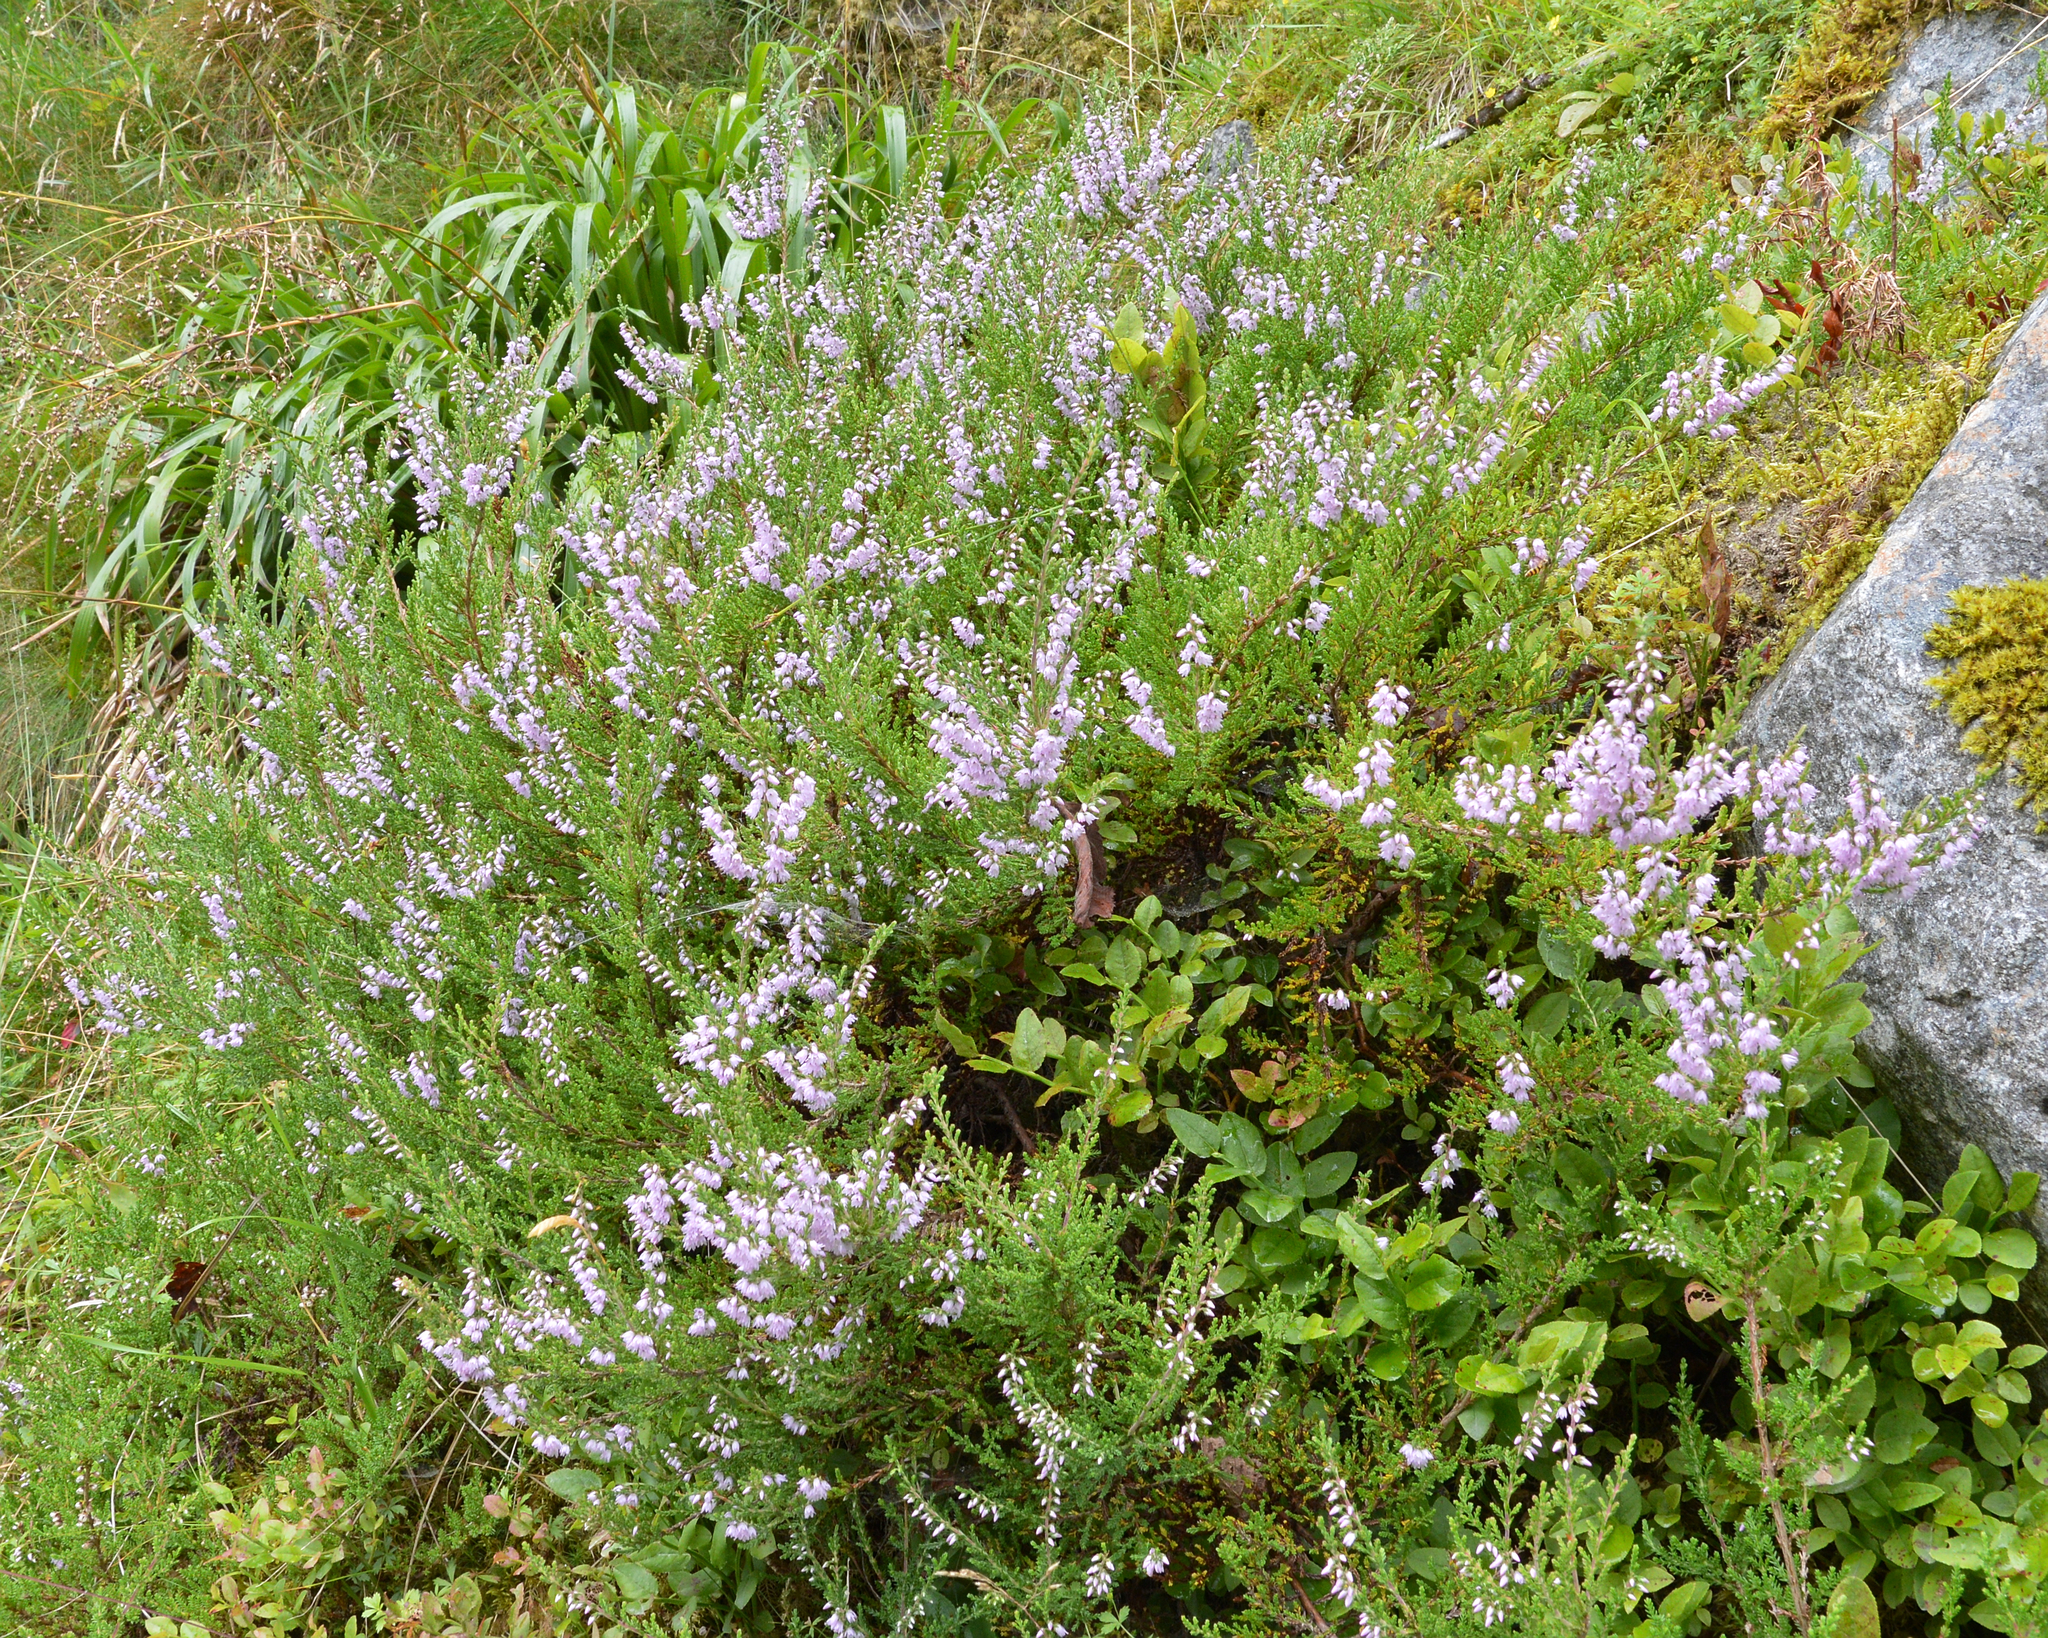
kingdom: Plantae
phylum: Tracheophyta
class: Magnoliopsida
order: Ericales
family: Ericaceae
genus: Calluna
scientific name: Calluna vulgaris
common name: Heather
